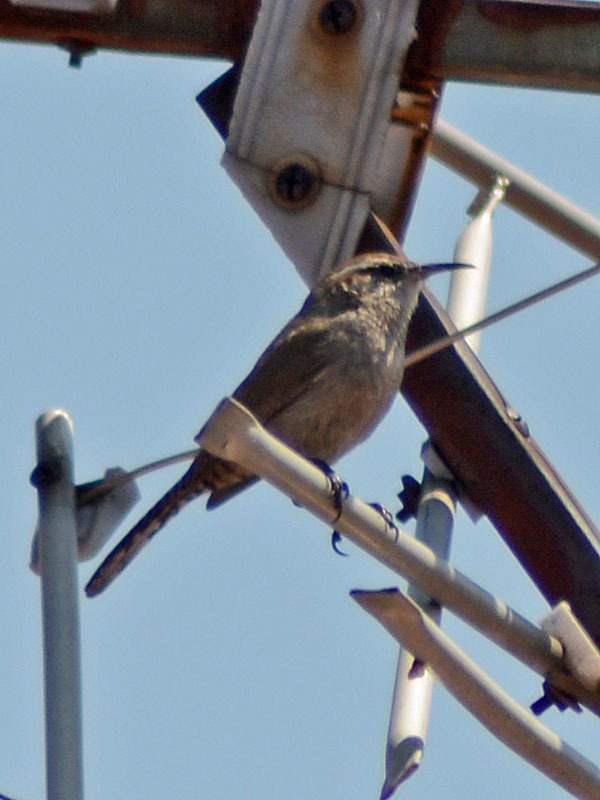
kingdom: Animalia
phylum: Chordata
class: Aves
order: Passeriformes
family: Troglodytidae
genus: Thryomanes
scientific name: Thryomanes bewickii
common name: Bewick's wren
